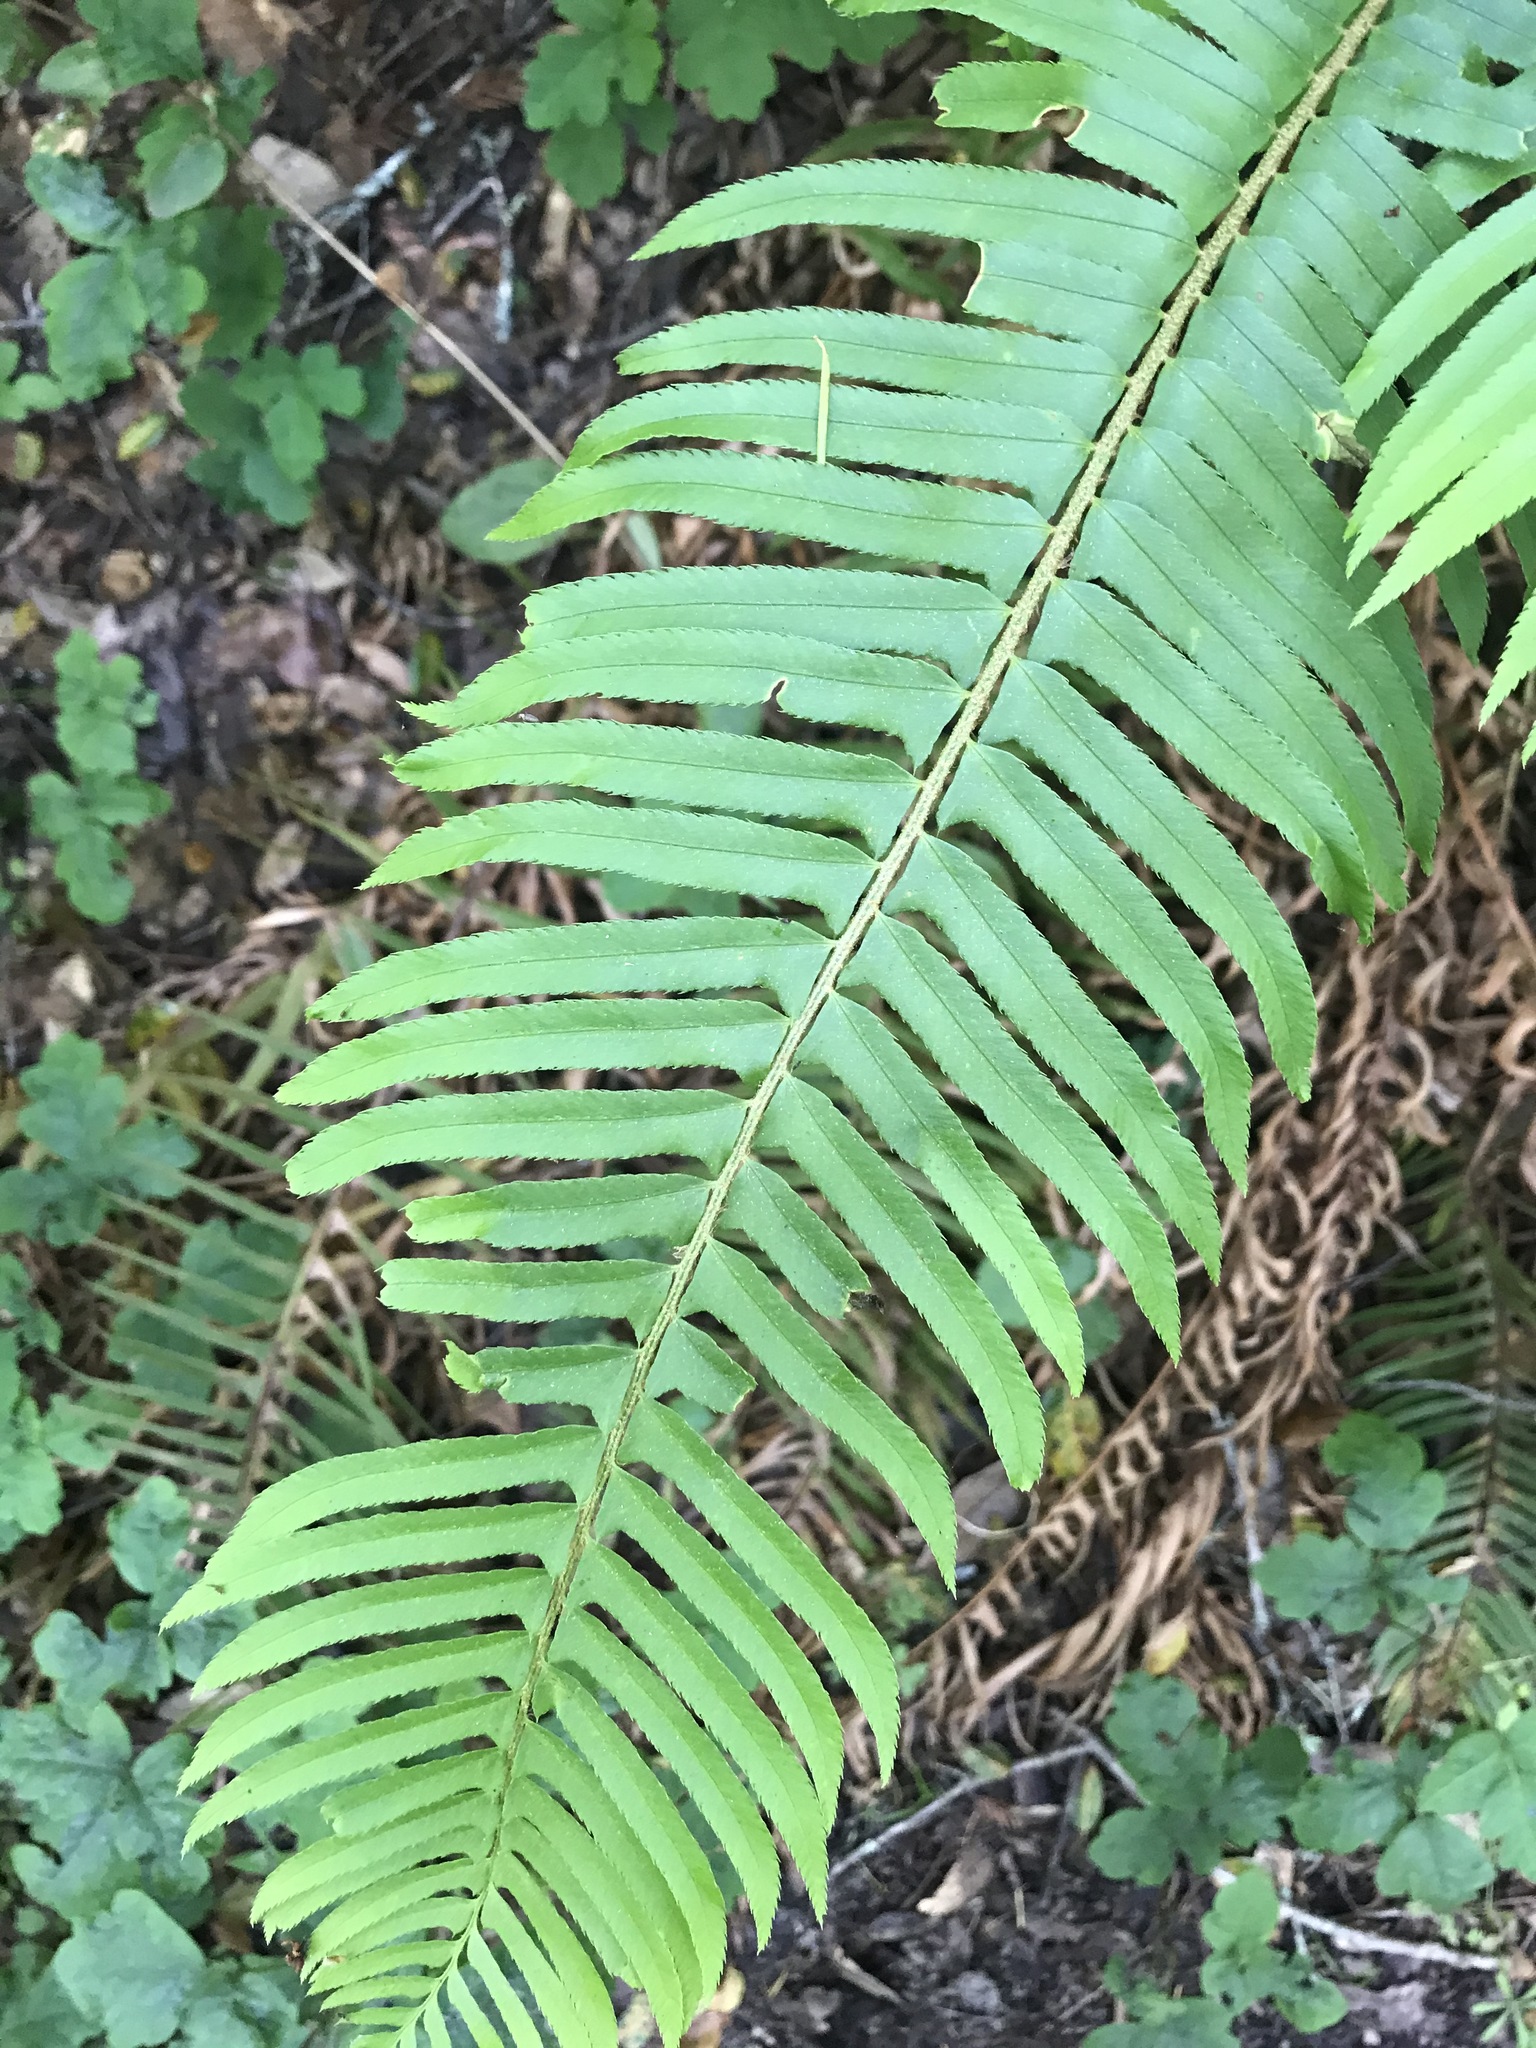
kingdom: Plantae
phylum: Tracheophyta
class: Polypodiopsida
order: Polypodiales
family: Dryopteridaceae
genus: Polystichum
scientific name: Polystichum munitum
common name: Western sword-fern
